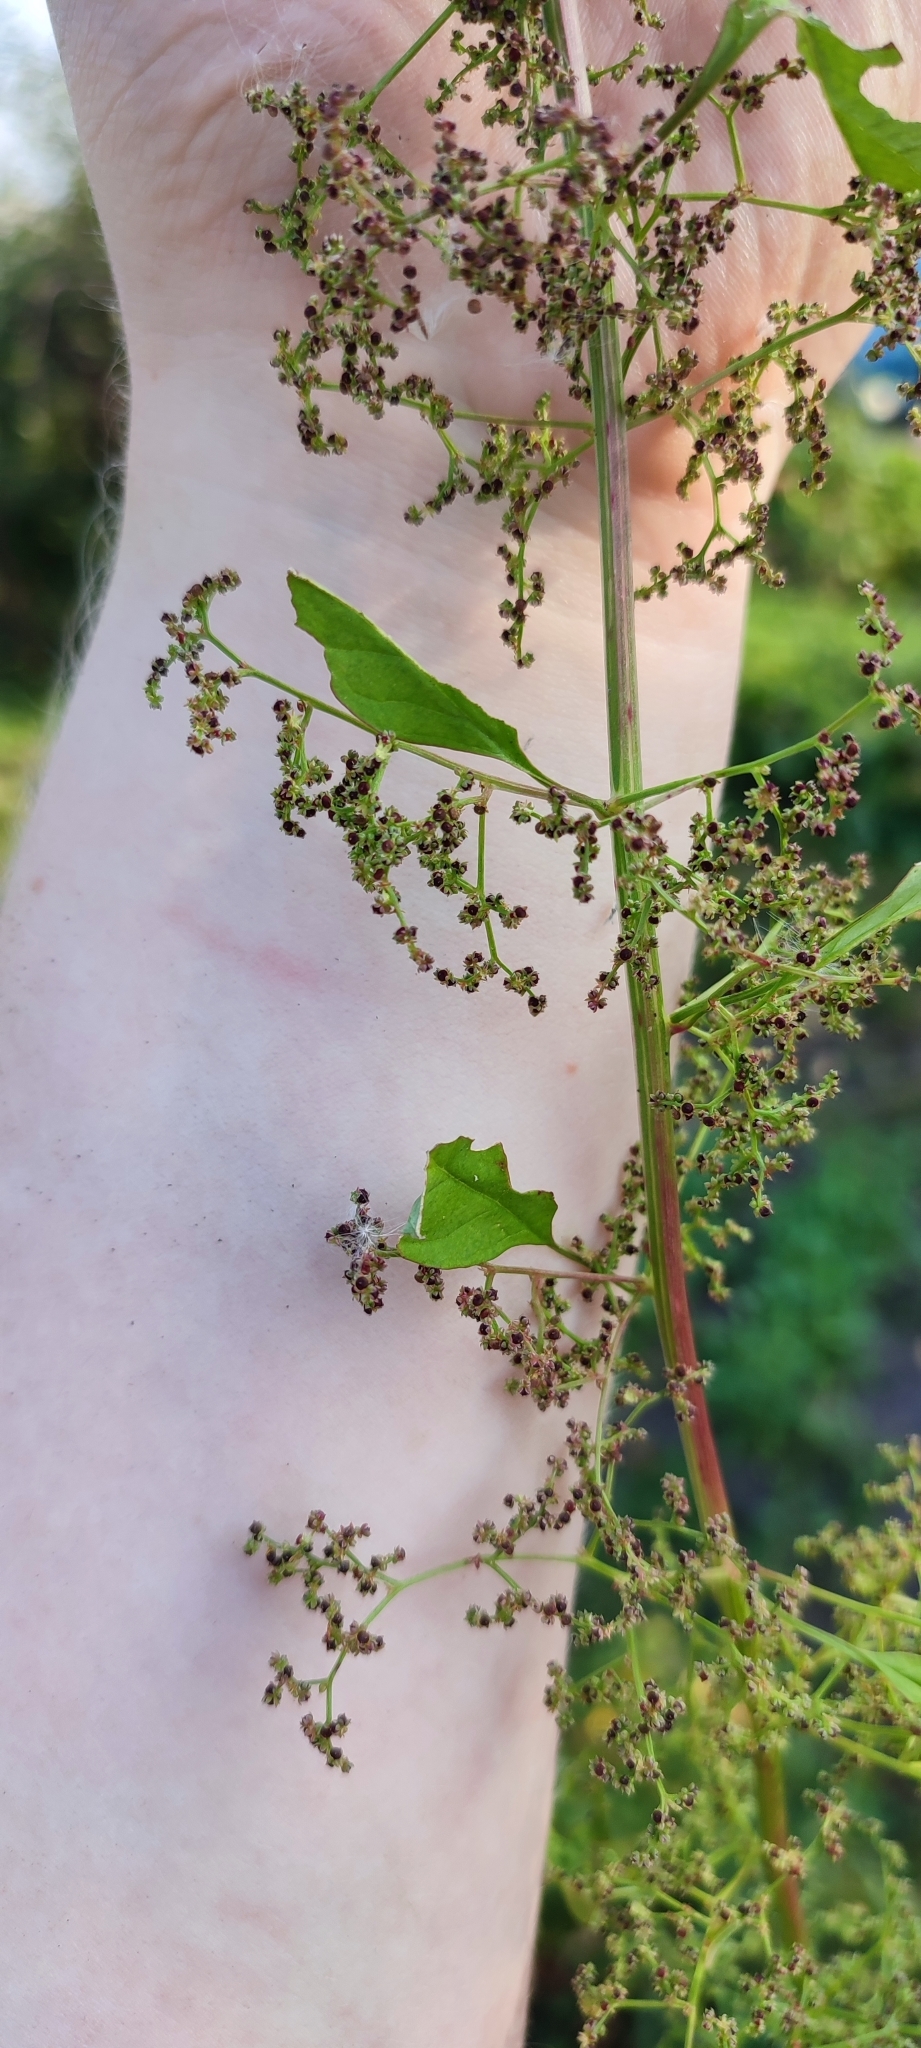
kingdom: Plantae
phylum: Tracheophyta
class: Magnoliopsida
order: Caryophyllales
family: Amaranthaceae
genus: Lipandra
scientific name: Lipandra polysperma
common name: Many-seed goosefoot
